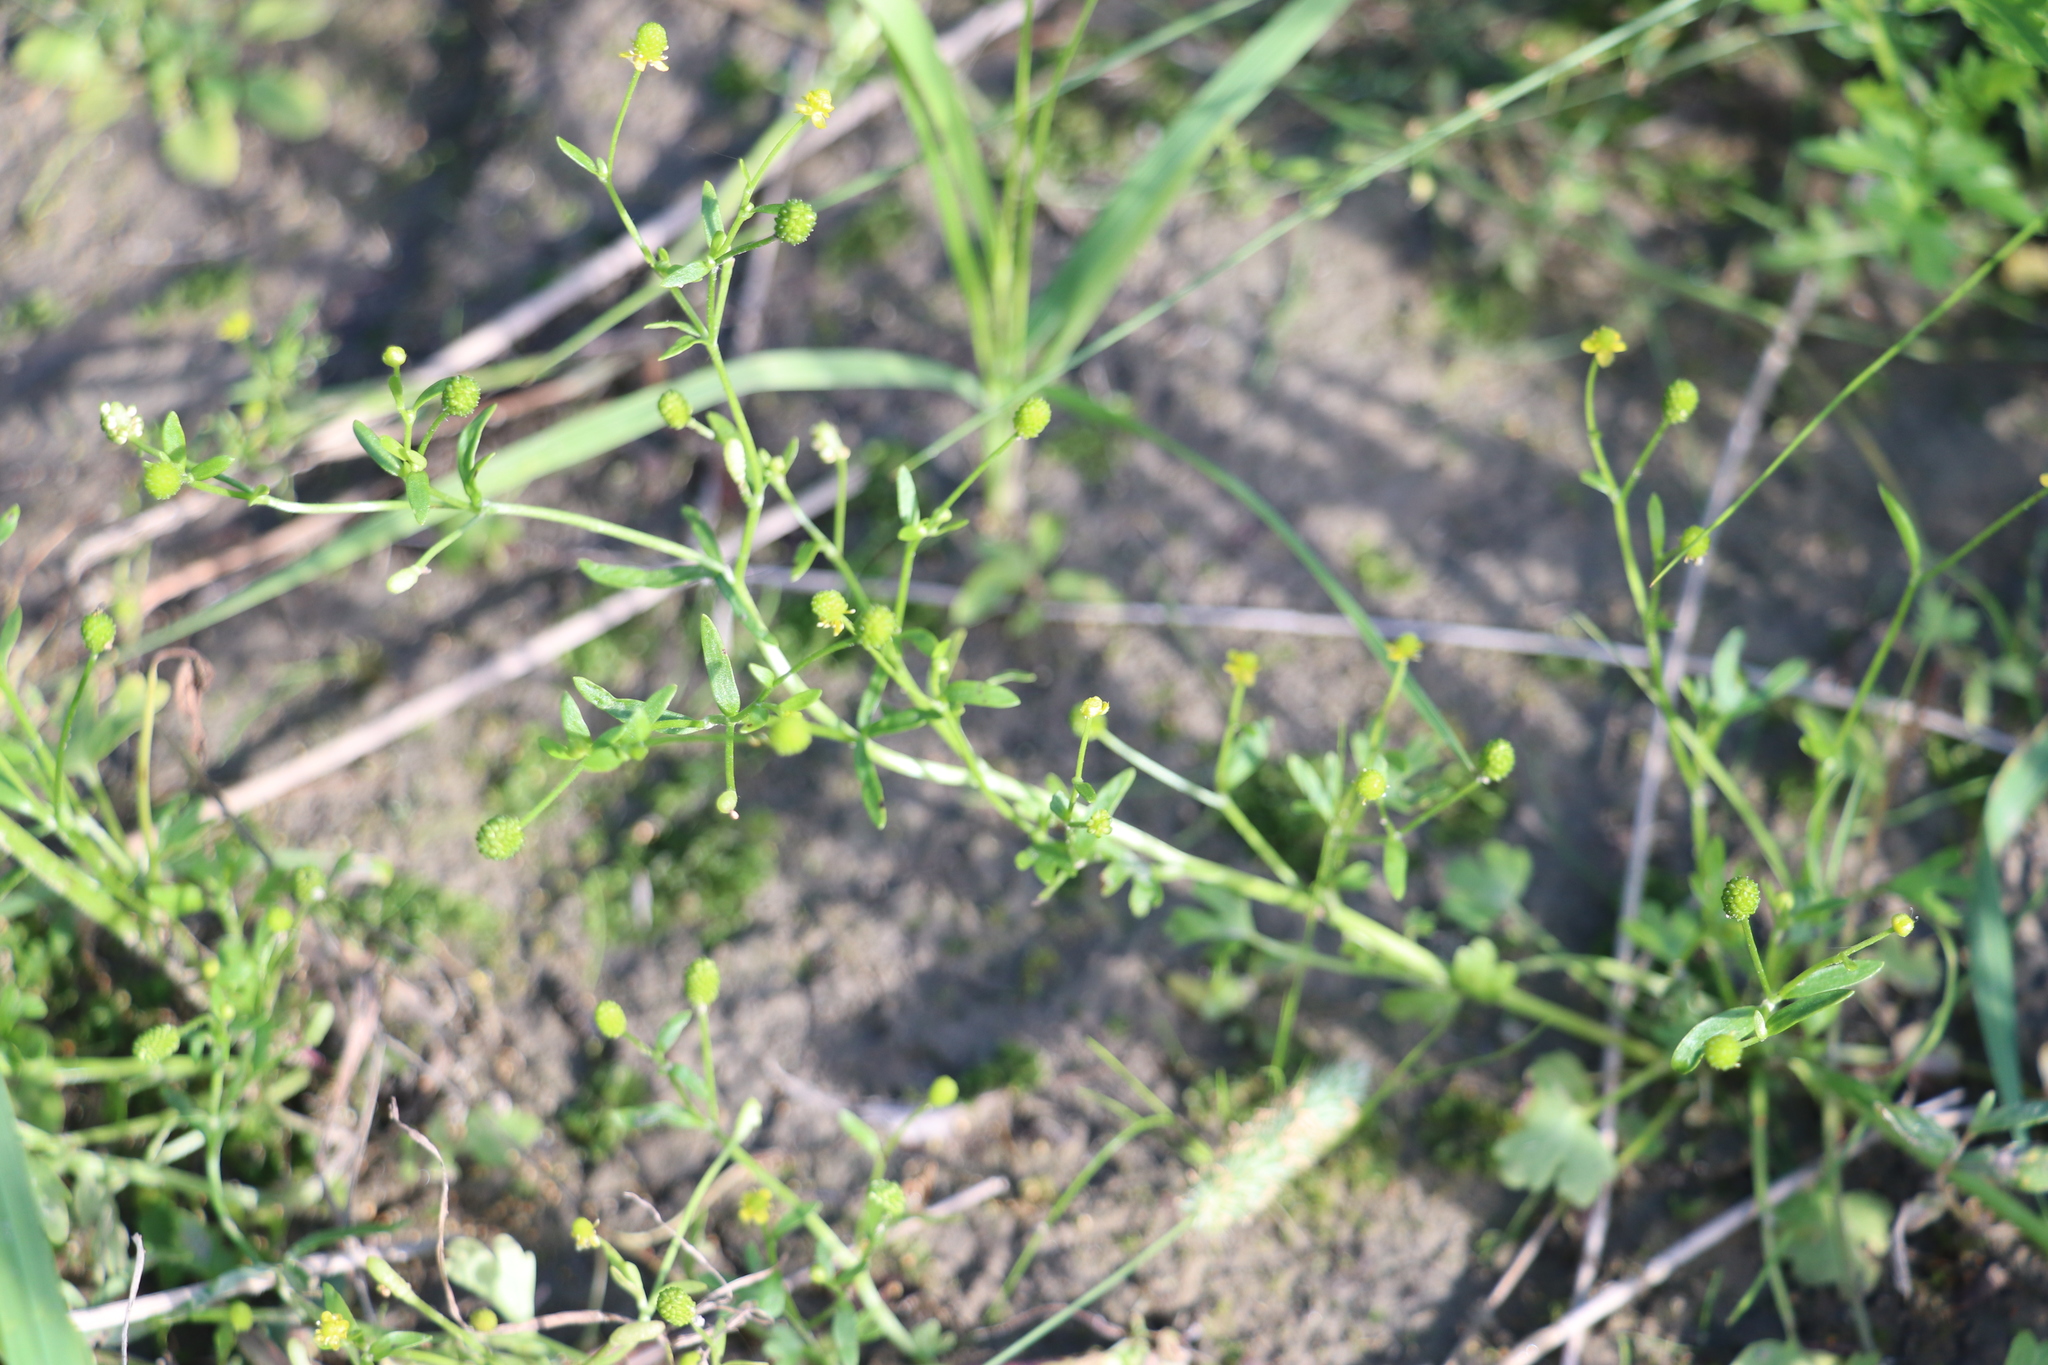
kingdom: Plantae
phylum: Tracheophyta
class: Magnoliopsida
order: Ranunculales
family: Ranunculaceae
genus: Ranunculus
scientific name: Ranunculus sceleratus
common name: Celery-leaved buttercup
